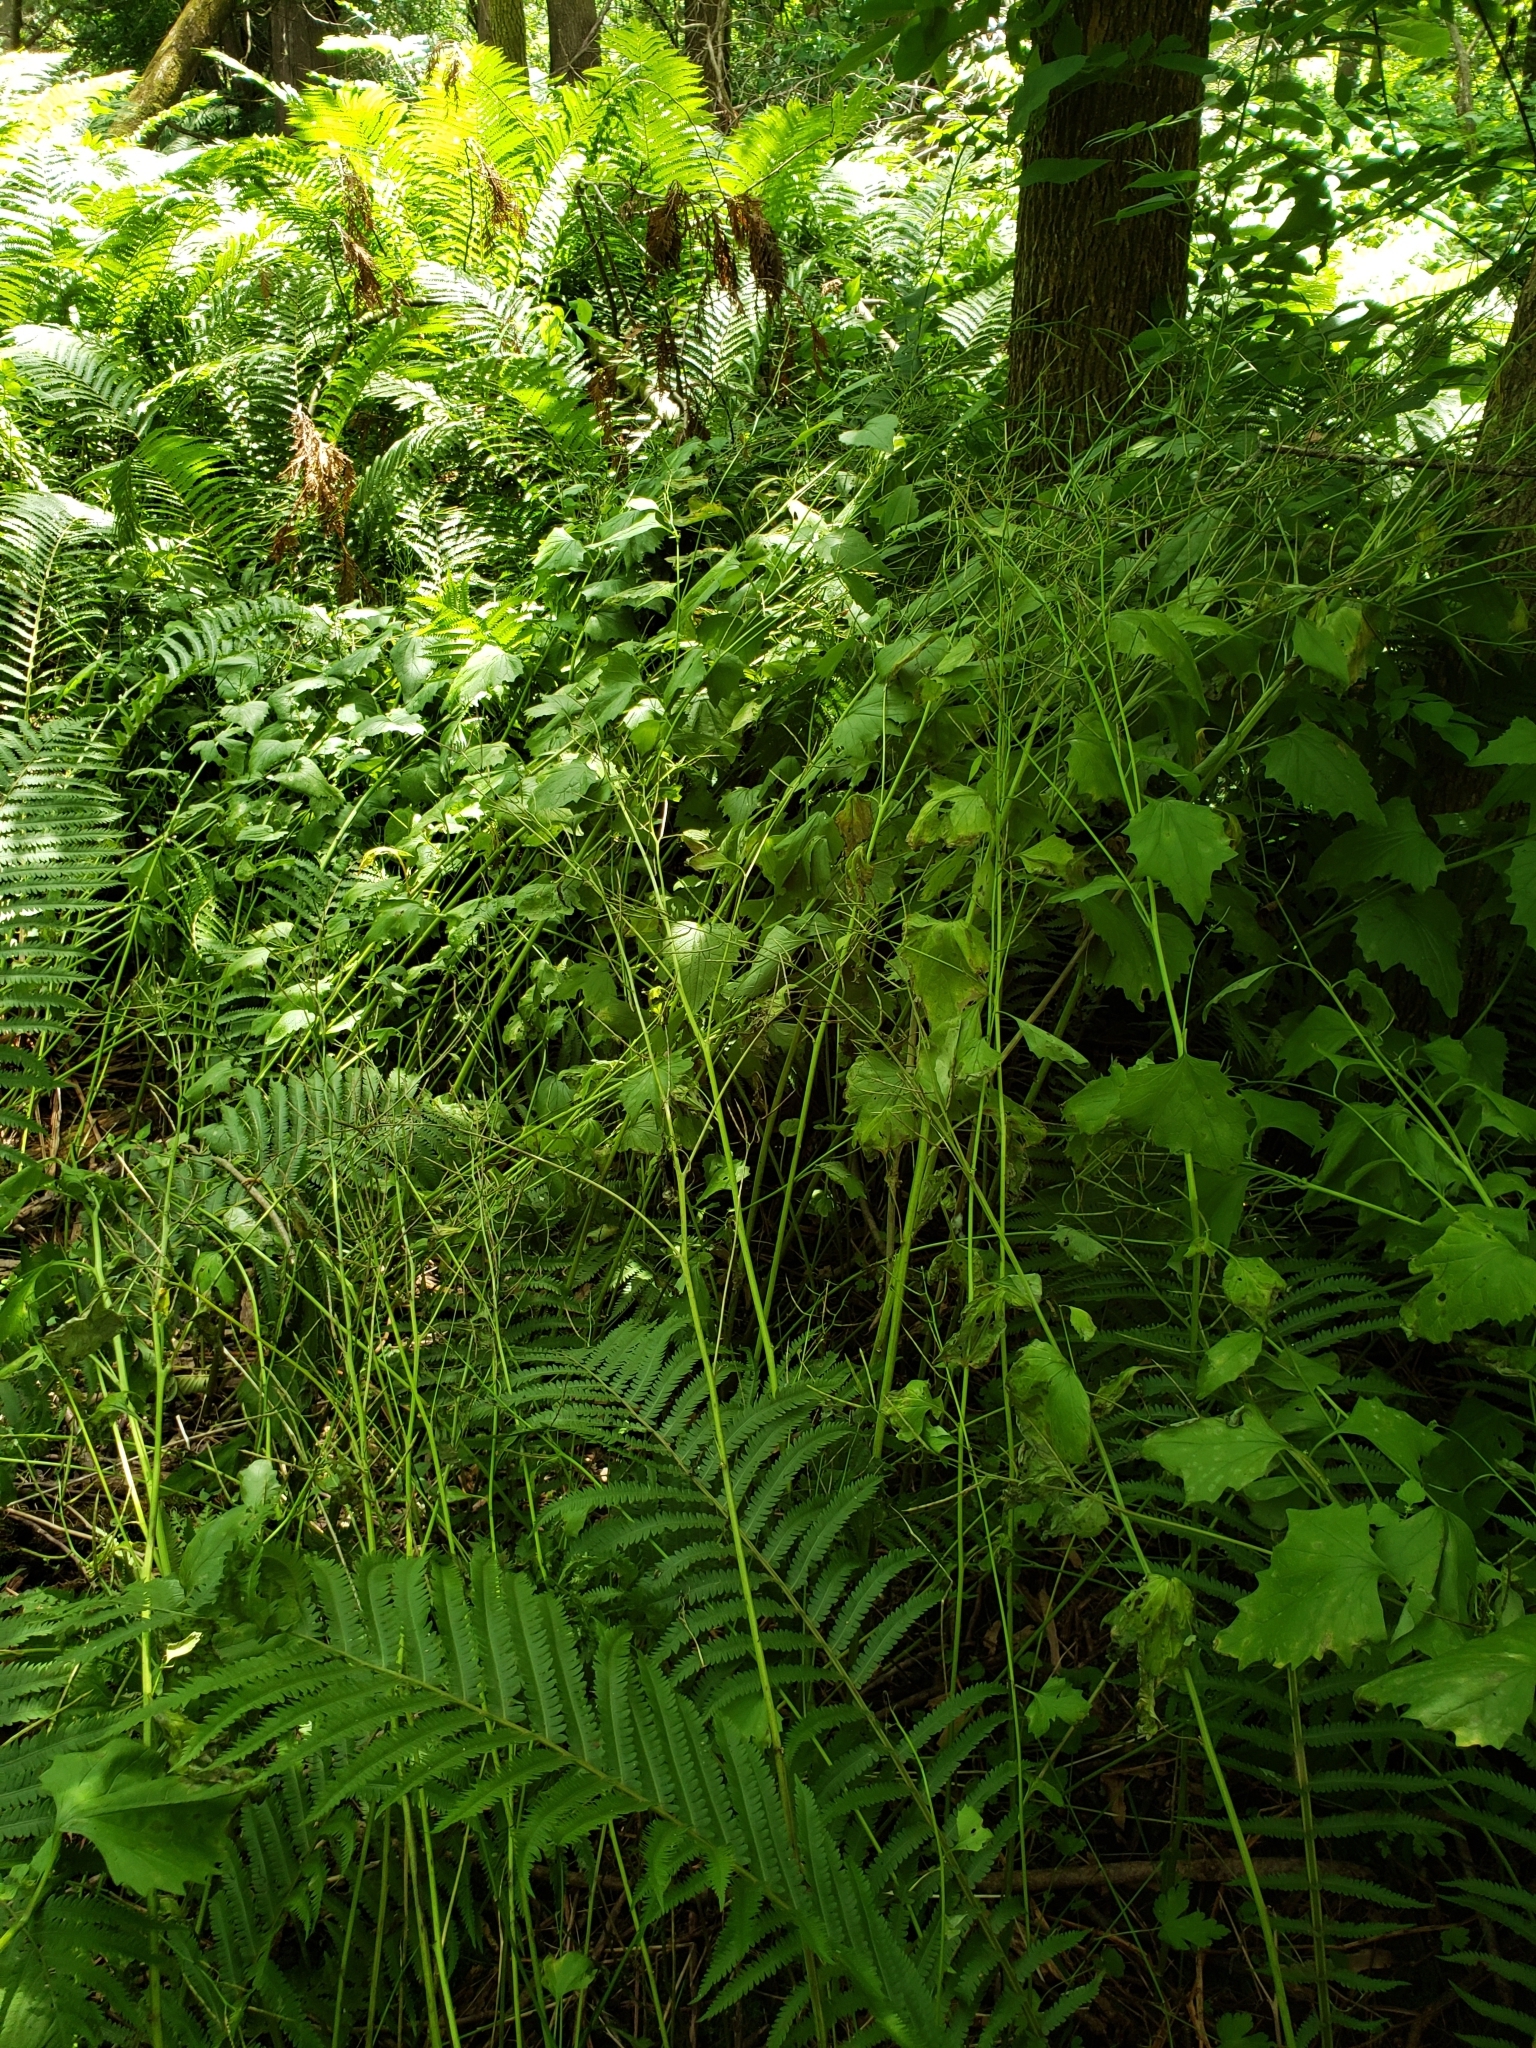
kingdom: Plantae
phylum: Tracheophyta
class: Magnoliopsida
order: Brassicales
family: Brassicaceae
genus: Alliaria
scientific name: Alliaria petiolata
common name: Garlic mustard
